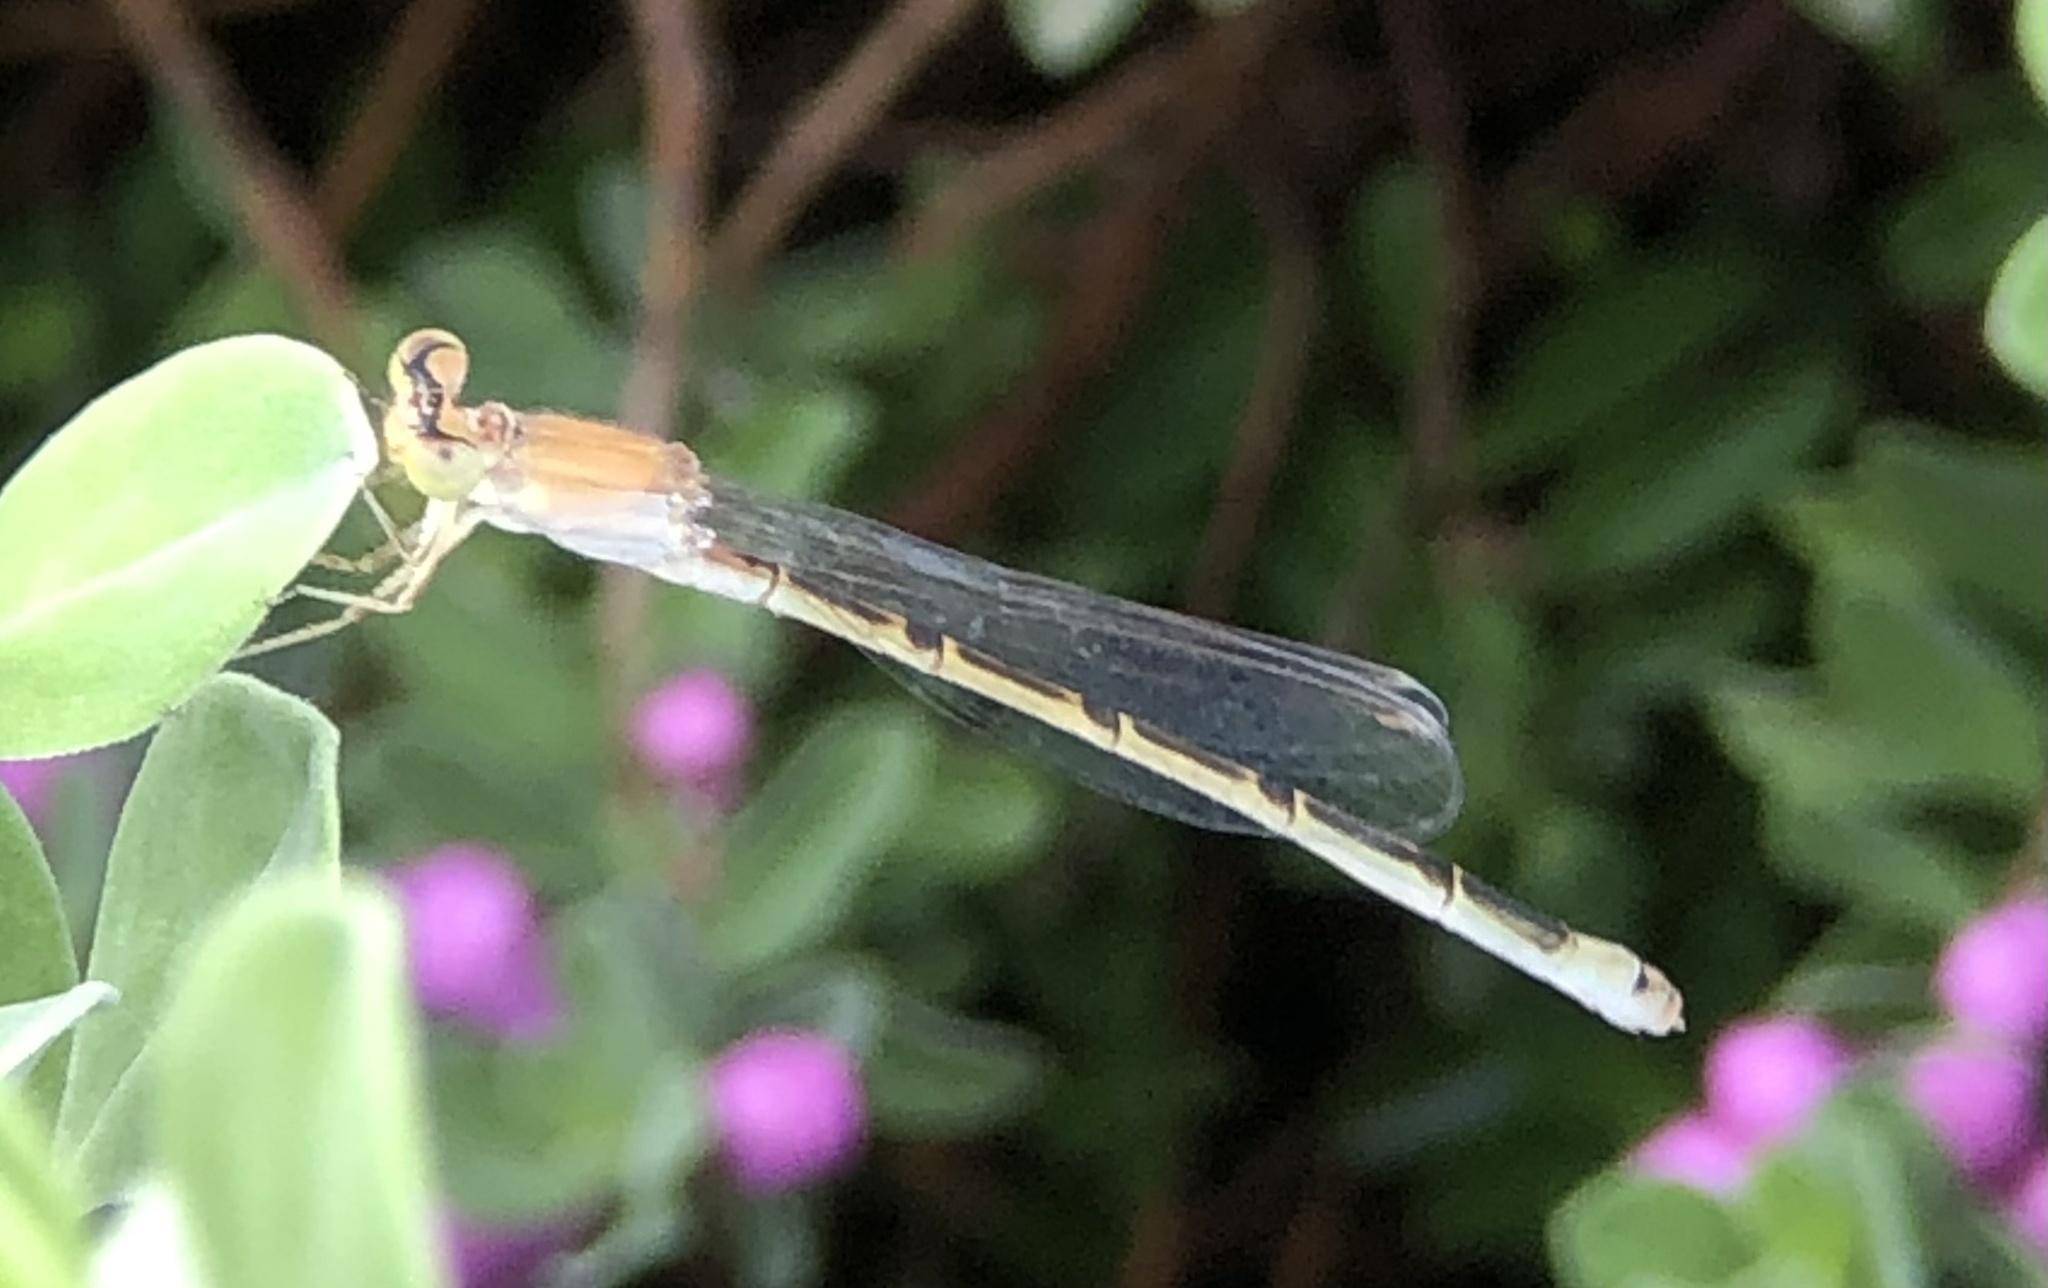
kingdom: Animalia
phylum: Arthropoda
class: Insecta
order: Odonata
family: Coenagrionidae
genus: Ischnura
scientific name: Ischnura barberi
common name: Desert forktail
